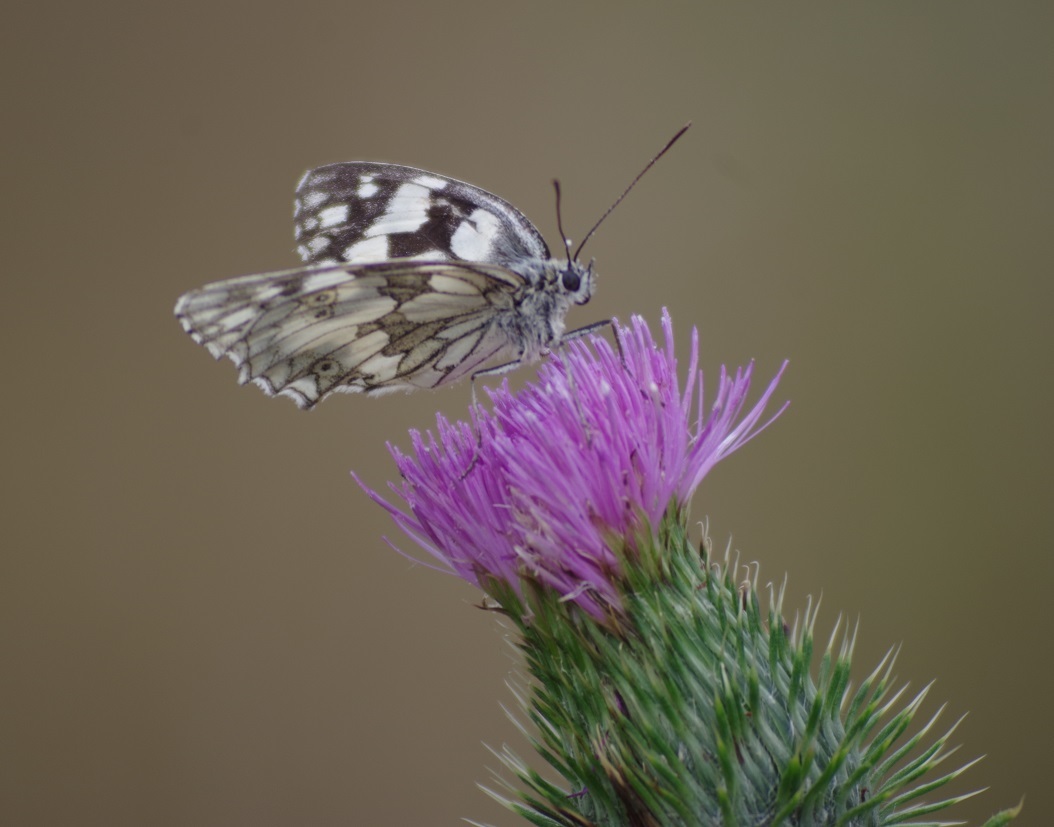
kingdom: Animalia
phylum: Arthropoda
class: Insecta
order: Lepidoptera
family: Nymphalidae
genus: Melanargia
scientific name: Melanargia galathea
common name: Marbled white
